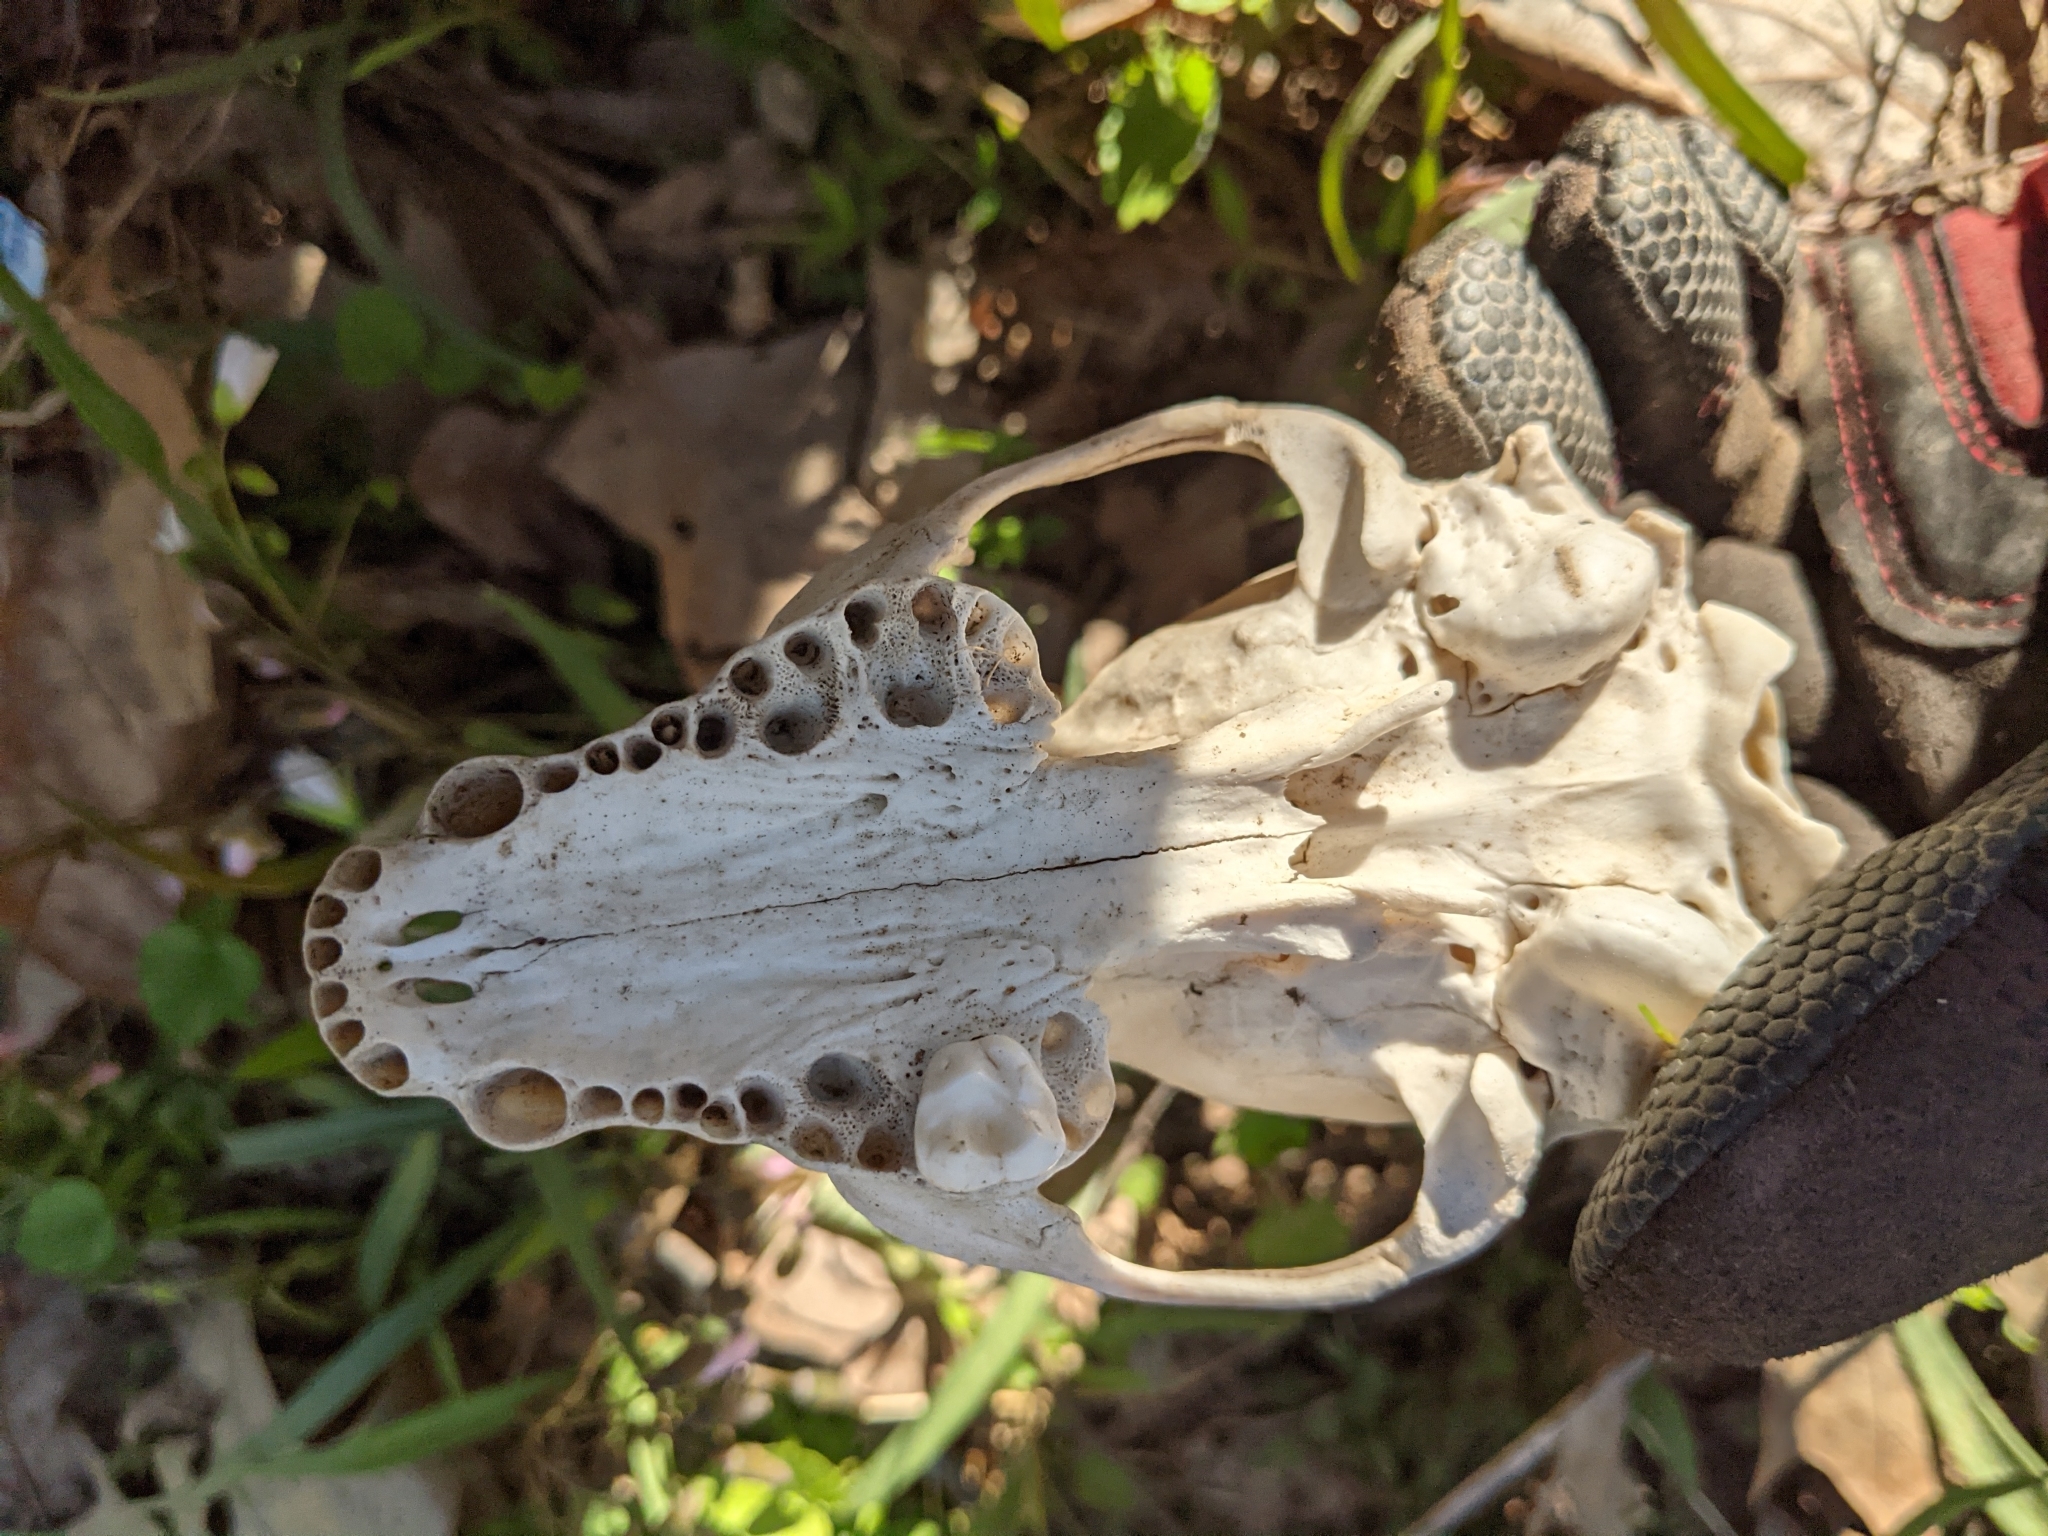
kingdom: Animalia
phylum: Chordata
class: Mammalia
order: Carnivora
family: Procyonidae
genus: Procyon
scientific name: Procyon lotor
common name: Raccoon
